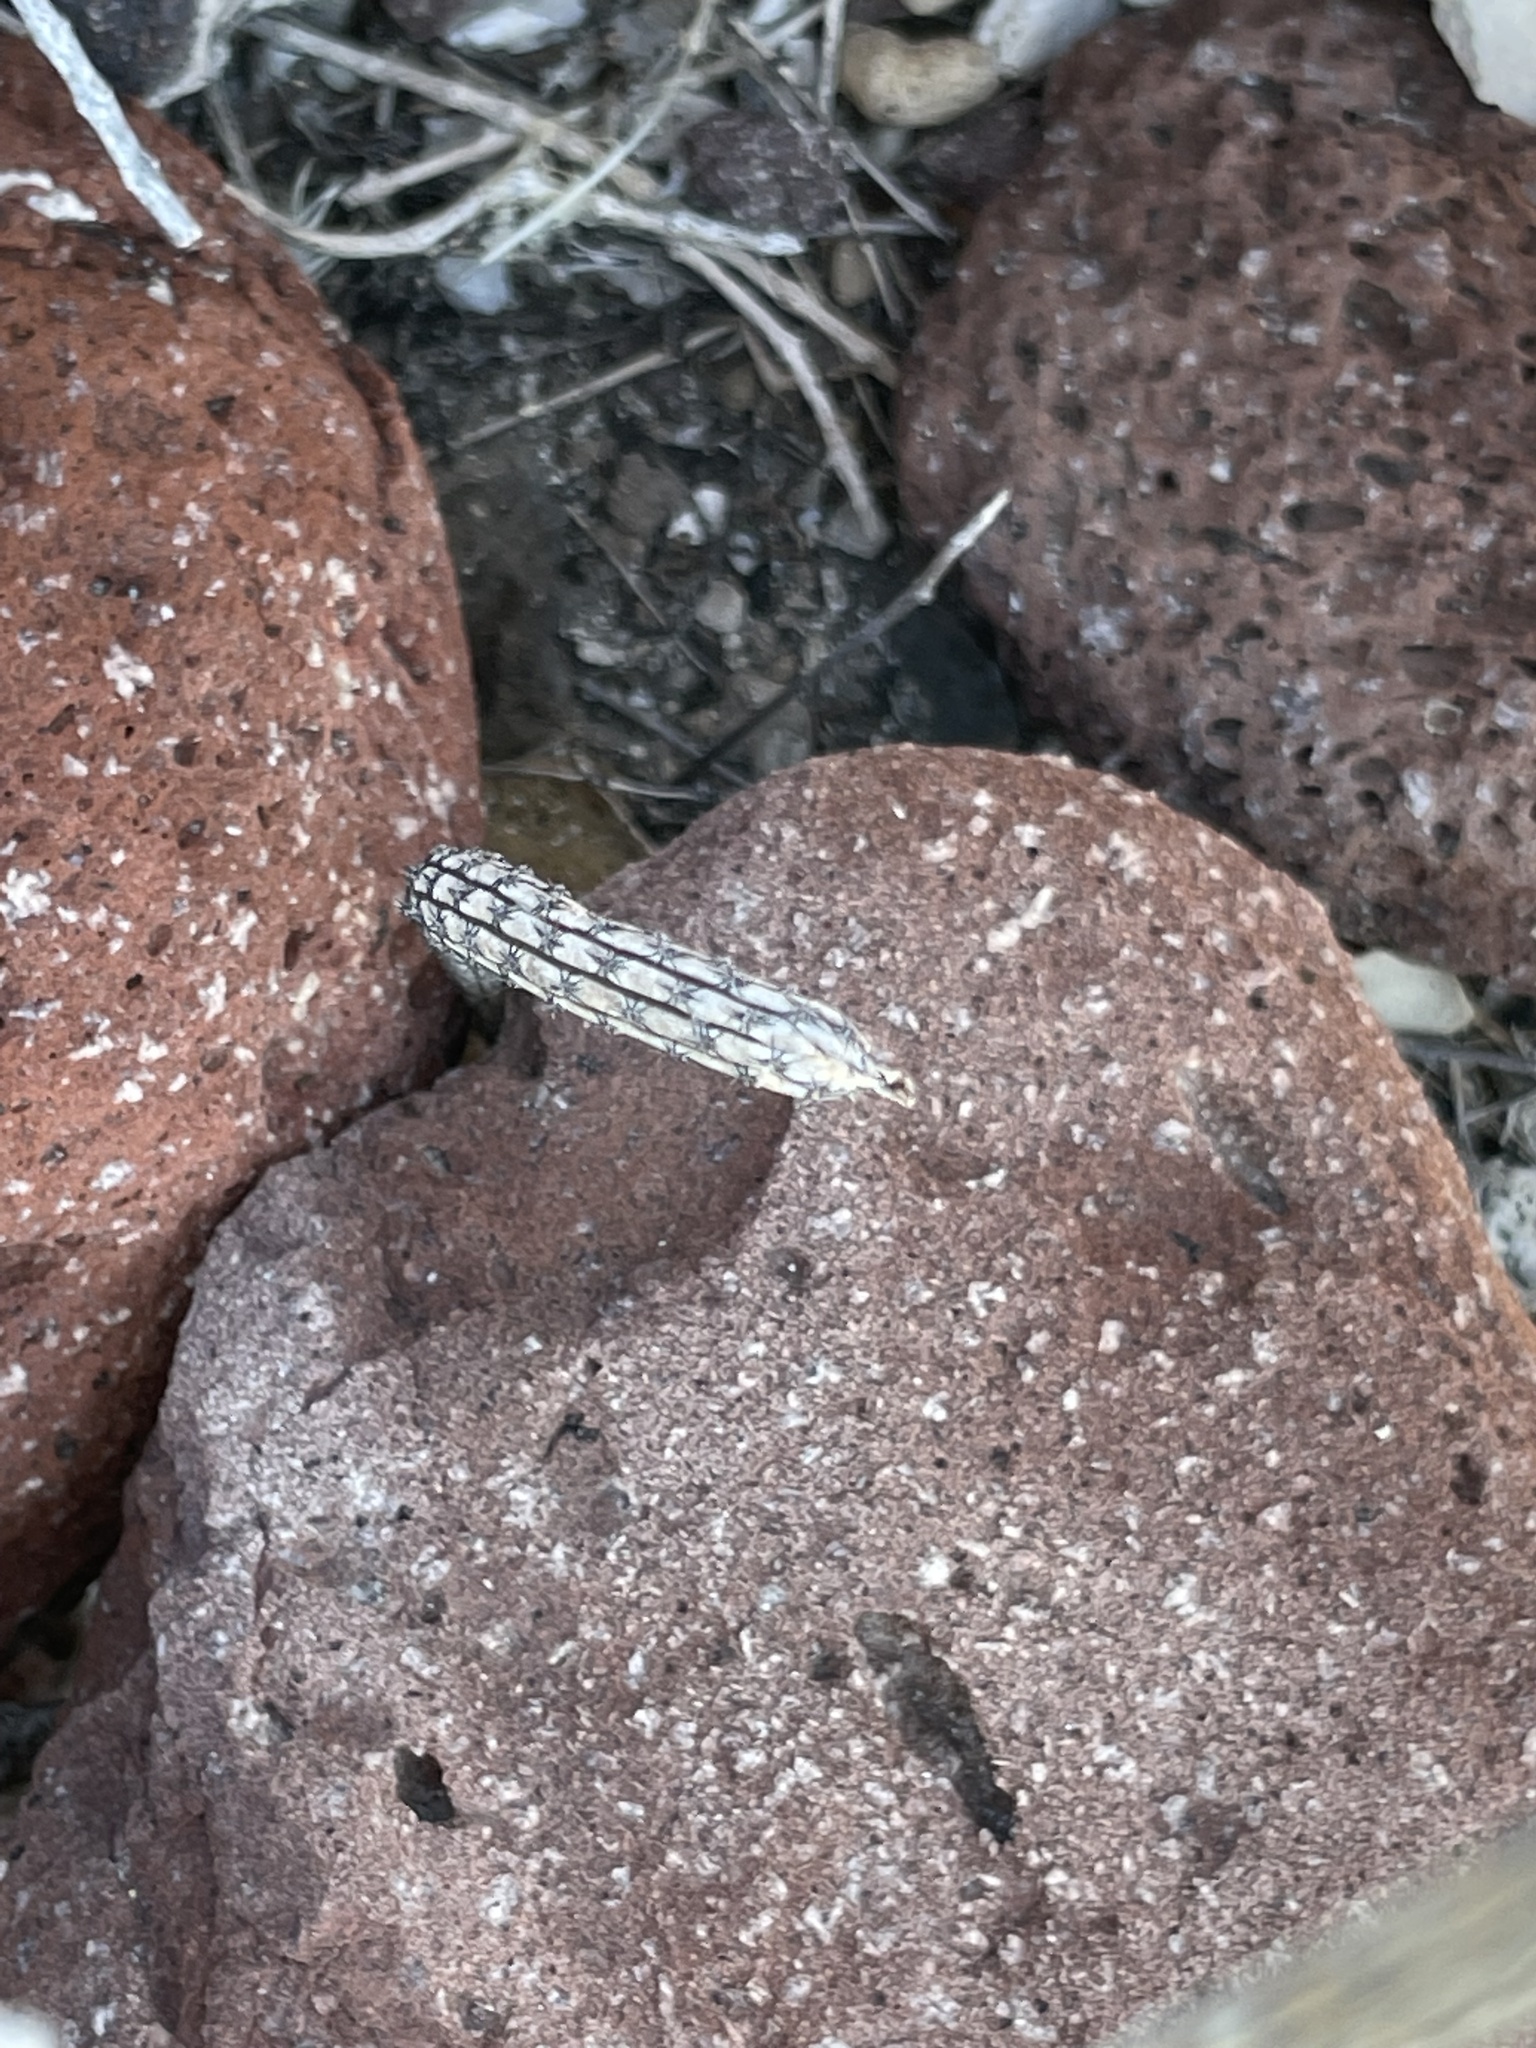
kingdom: Plantae
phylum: Tracheophyta
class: Magnoliopsida
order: Caryophyllales
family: Cactaceae
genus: Peniocereus
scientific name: Peniocereus striatus
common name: Gearstem cactus
